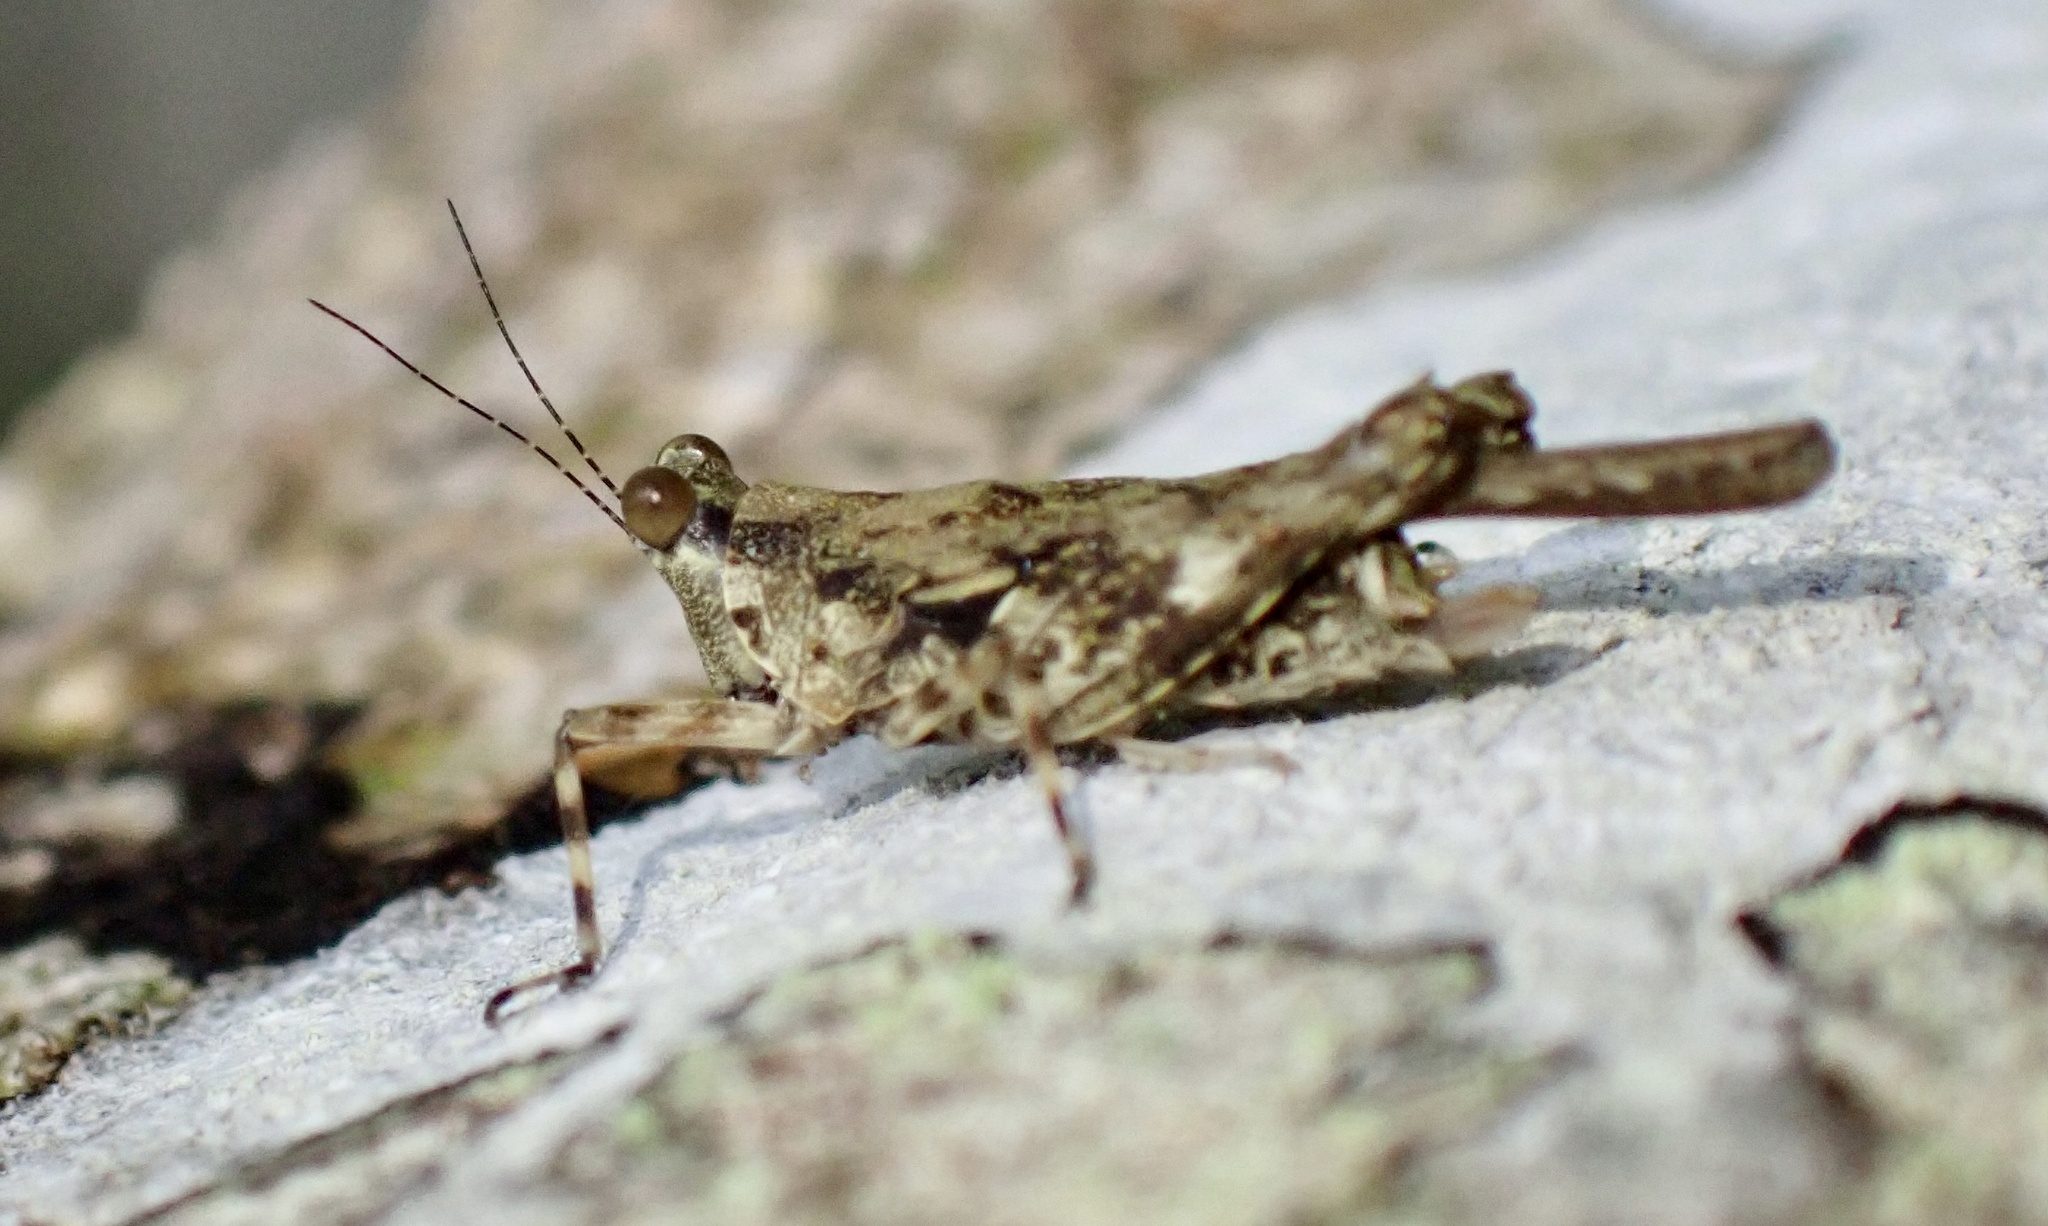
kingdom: Animalia
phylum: Arthropoda
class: Insecta
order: Orthoptera
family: Tetrigidae
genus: Mazarredia
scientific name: Mazarredia celebica
